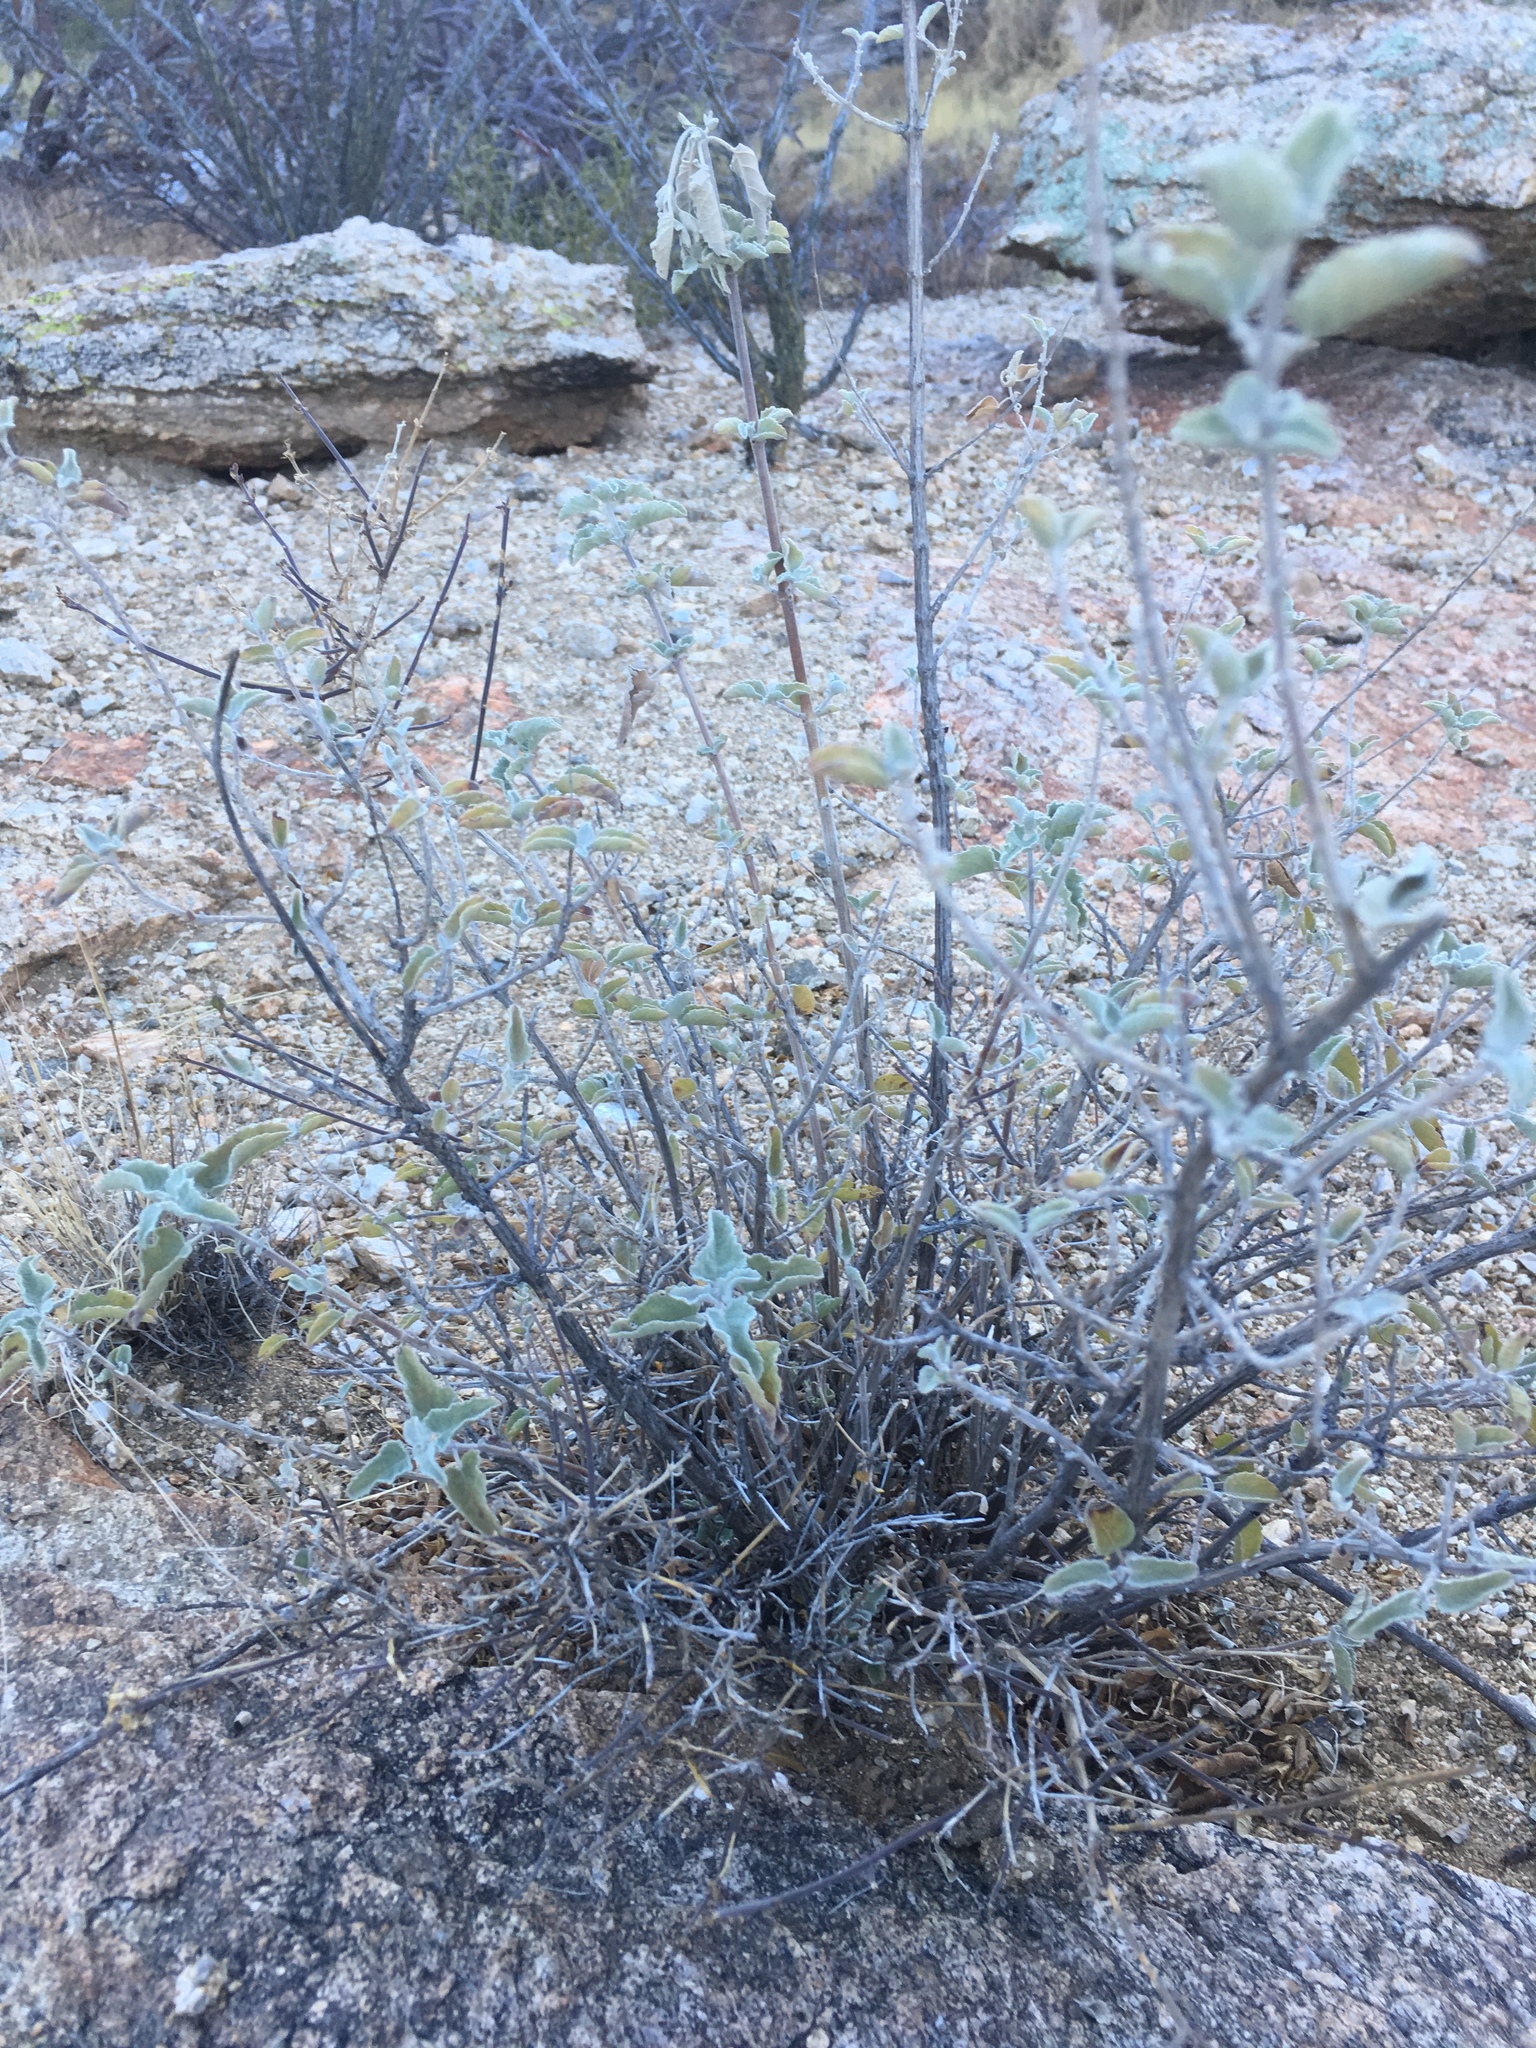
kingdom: Plantae
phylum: Tracheophyta
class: Magnoliopsida
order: Lamiales
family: Lamiaceae
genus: Condea
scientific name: Condea emoryi
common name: Chia
